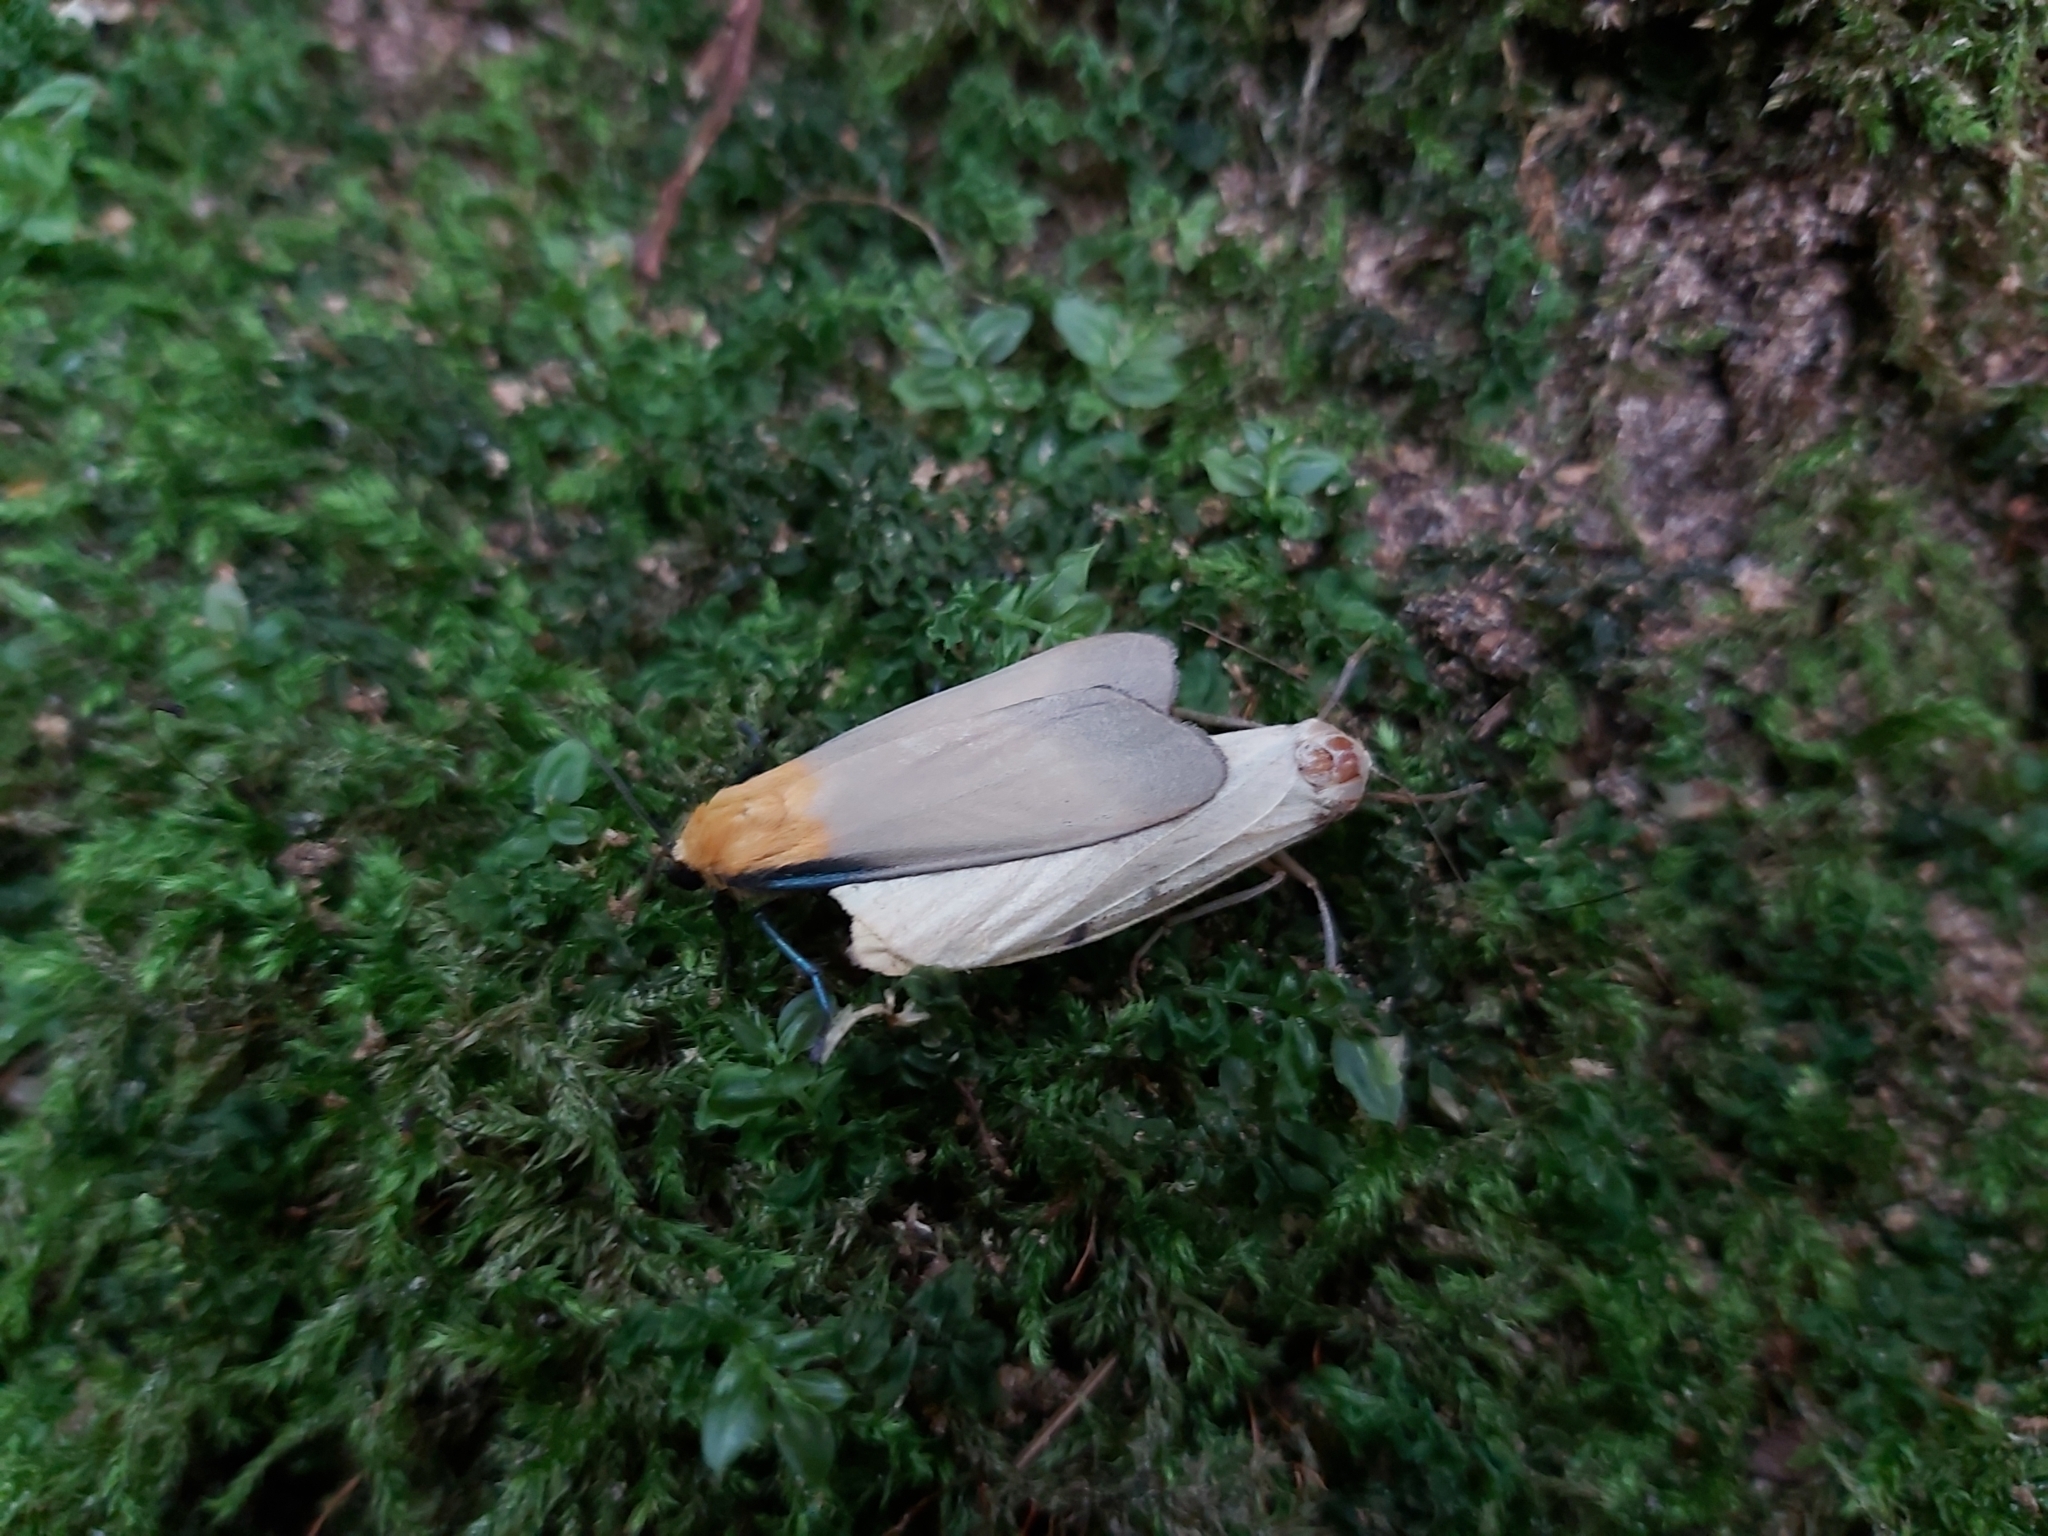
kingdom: Animalia
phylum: Arthropoda
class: Insecta
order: Lepidoptera
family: Erebidae
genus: Lithosia
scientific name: Lithosia quadra
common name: Four-spotted footman
